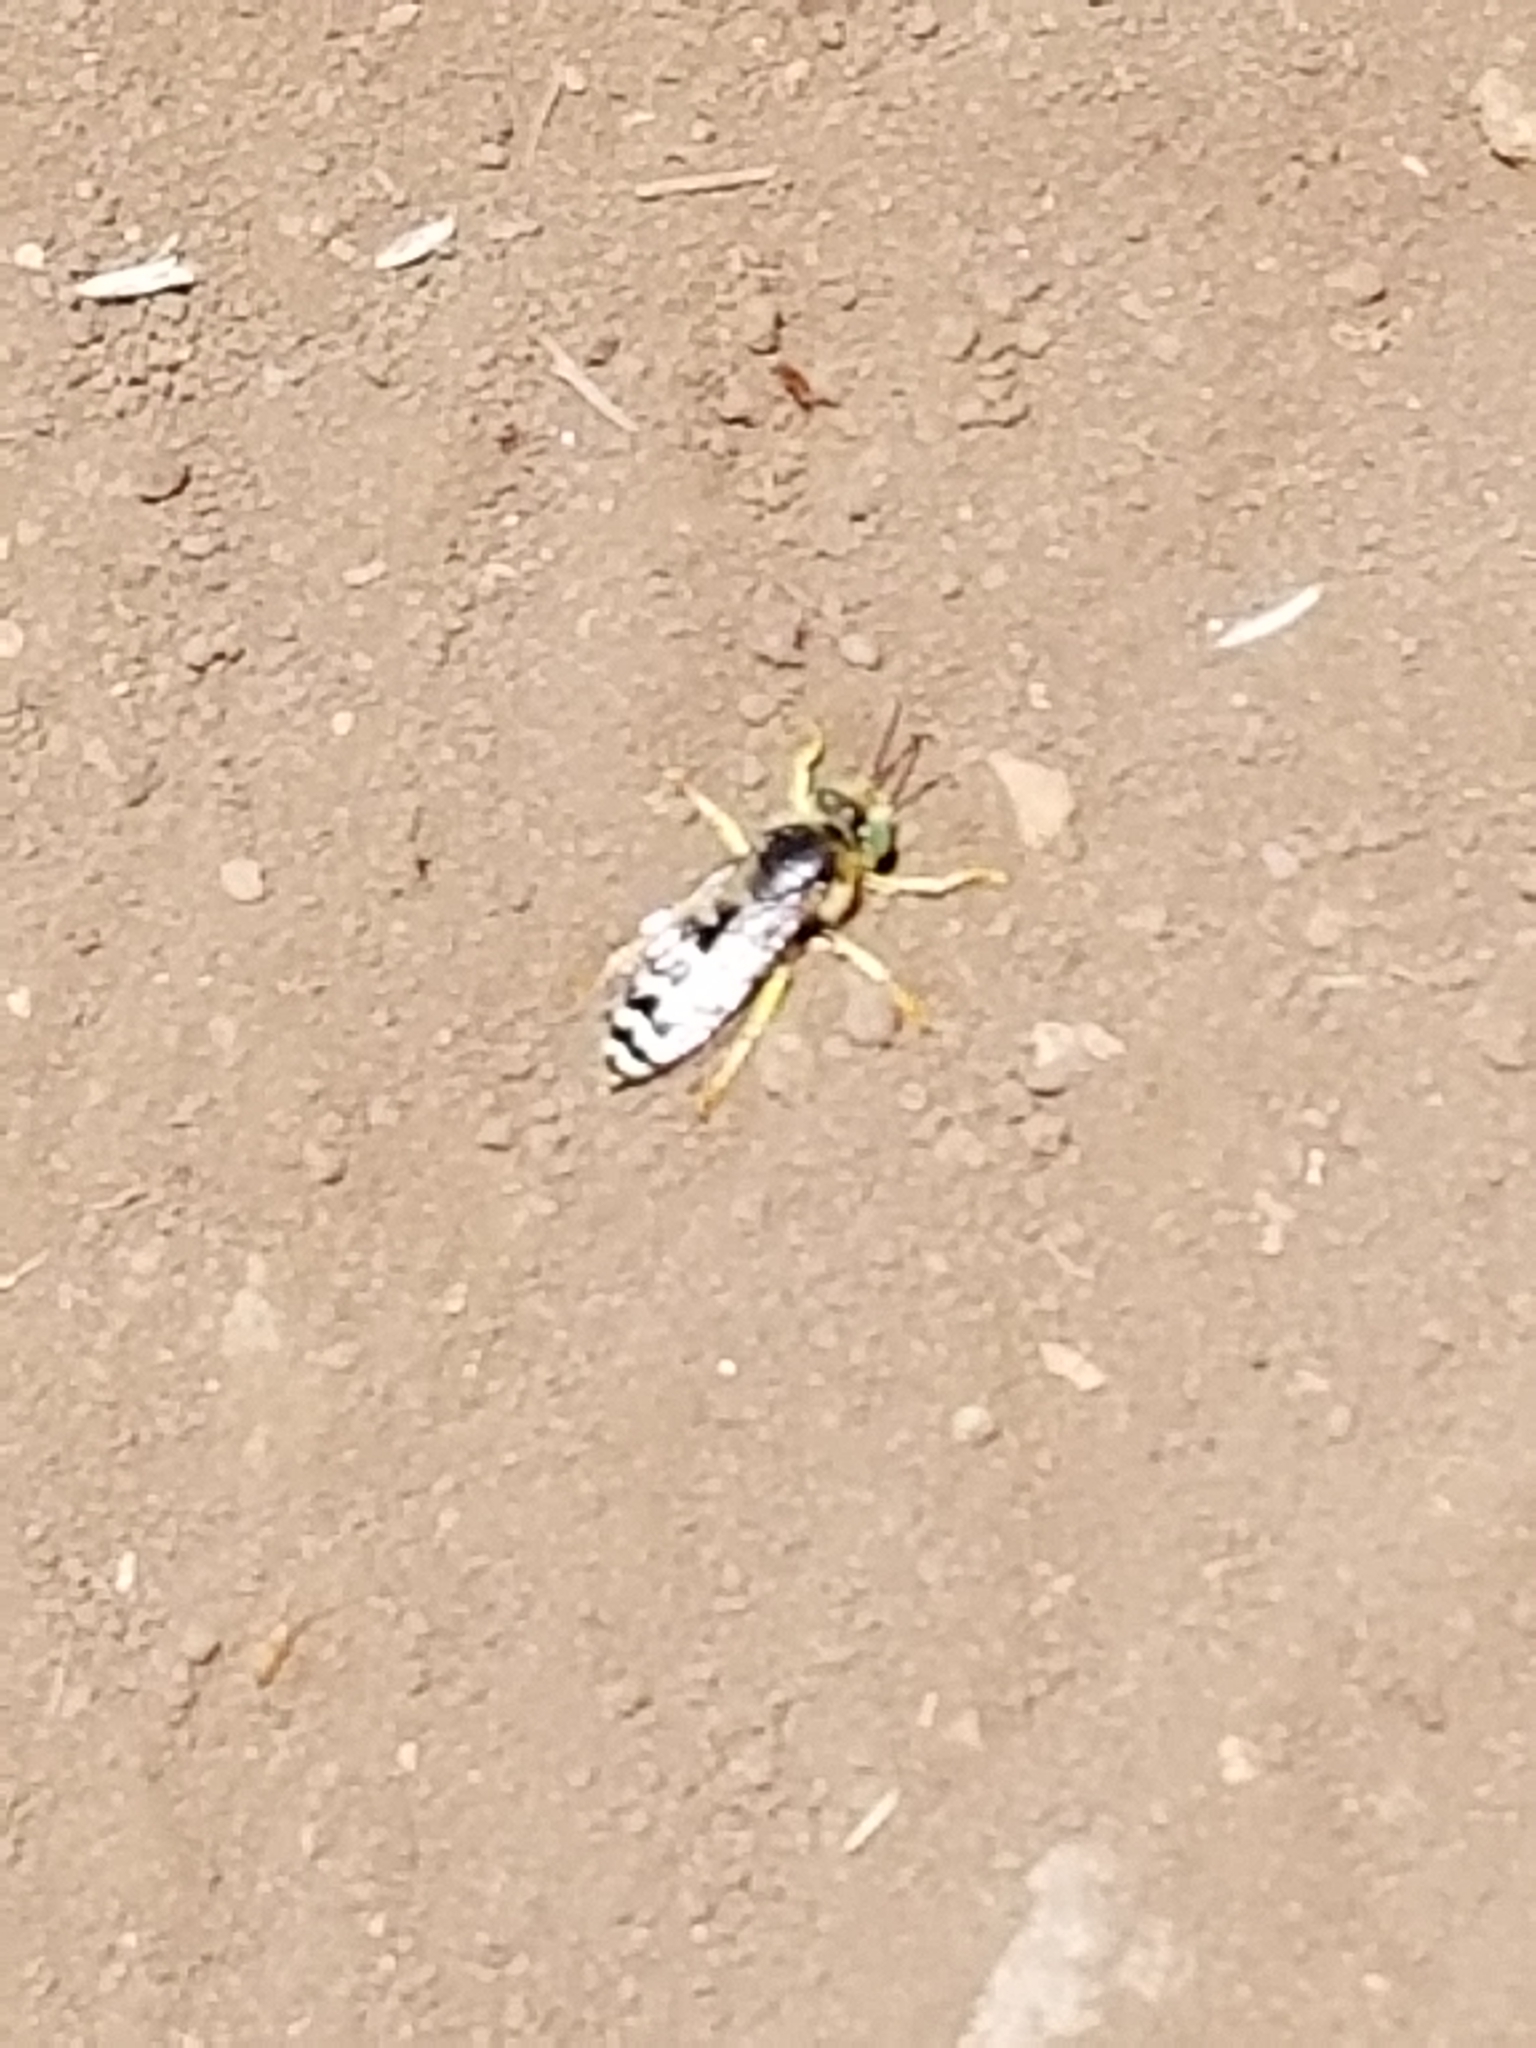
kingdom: Animalia
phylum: Arthropoda
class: Insecta
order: Hymenoptera
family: Crabronidae
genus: Bembix
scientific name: Bembix americana
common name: American sand wasp
